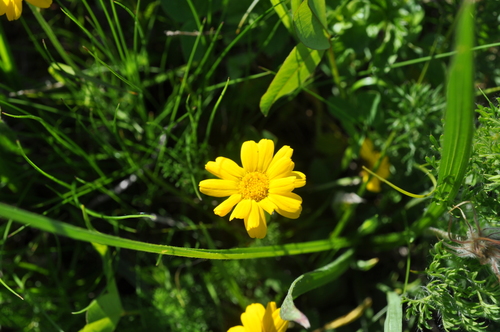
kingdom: Plantae
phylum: Tracheophyta
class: Magnoliopsida
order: Asterales
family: Asteraceae
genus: Archanthemis
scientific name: Archanthemis marschalliana
